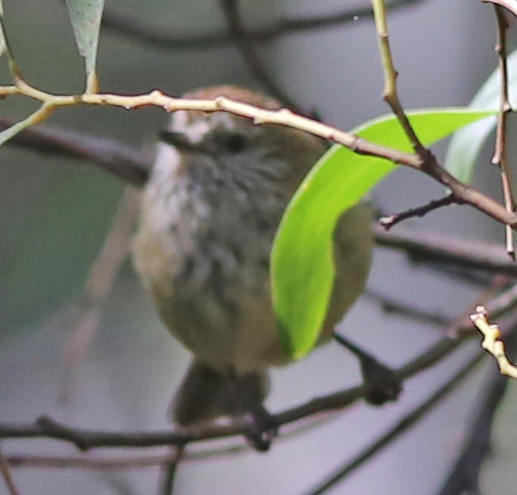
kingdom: Animalia
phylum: Chordata
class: Aves
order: Passeriformes
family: Acanthizidae
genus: Acanthiza
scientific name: Acanthiza lineata
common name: Striated thornbill
